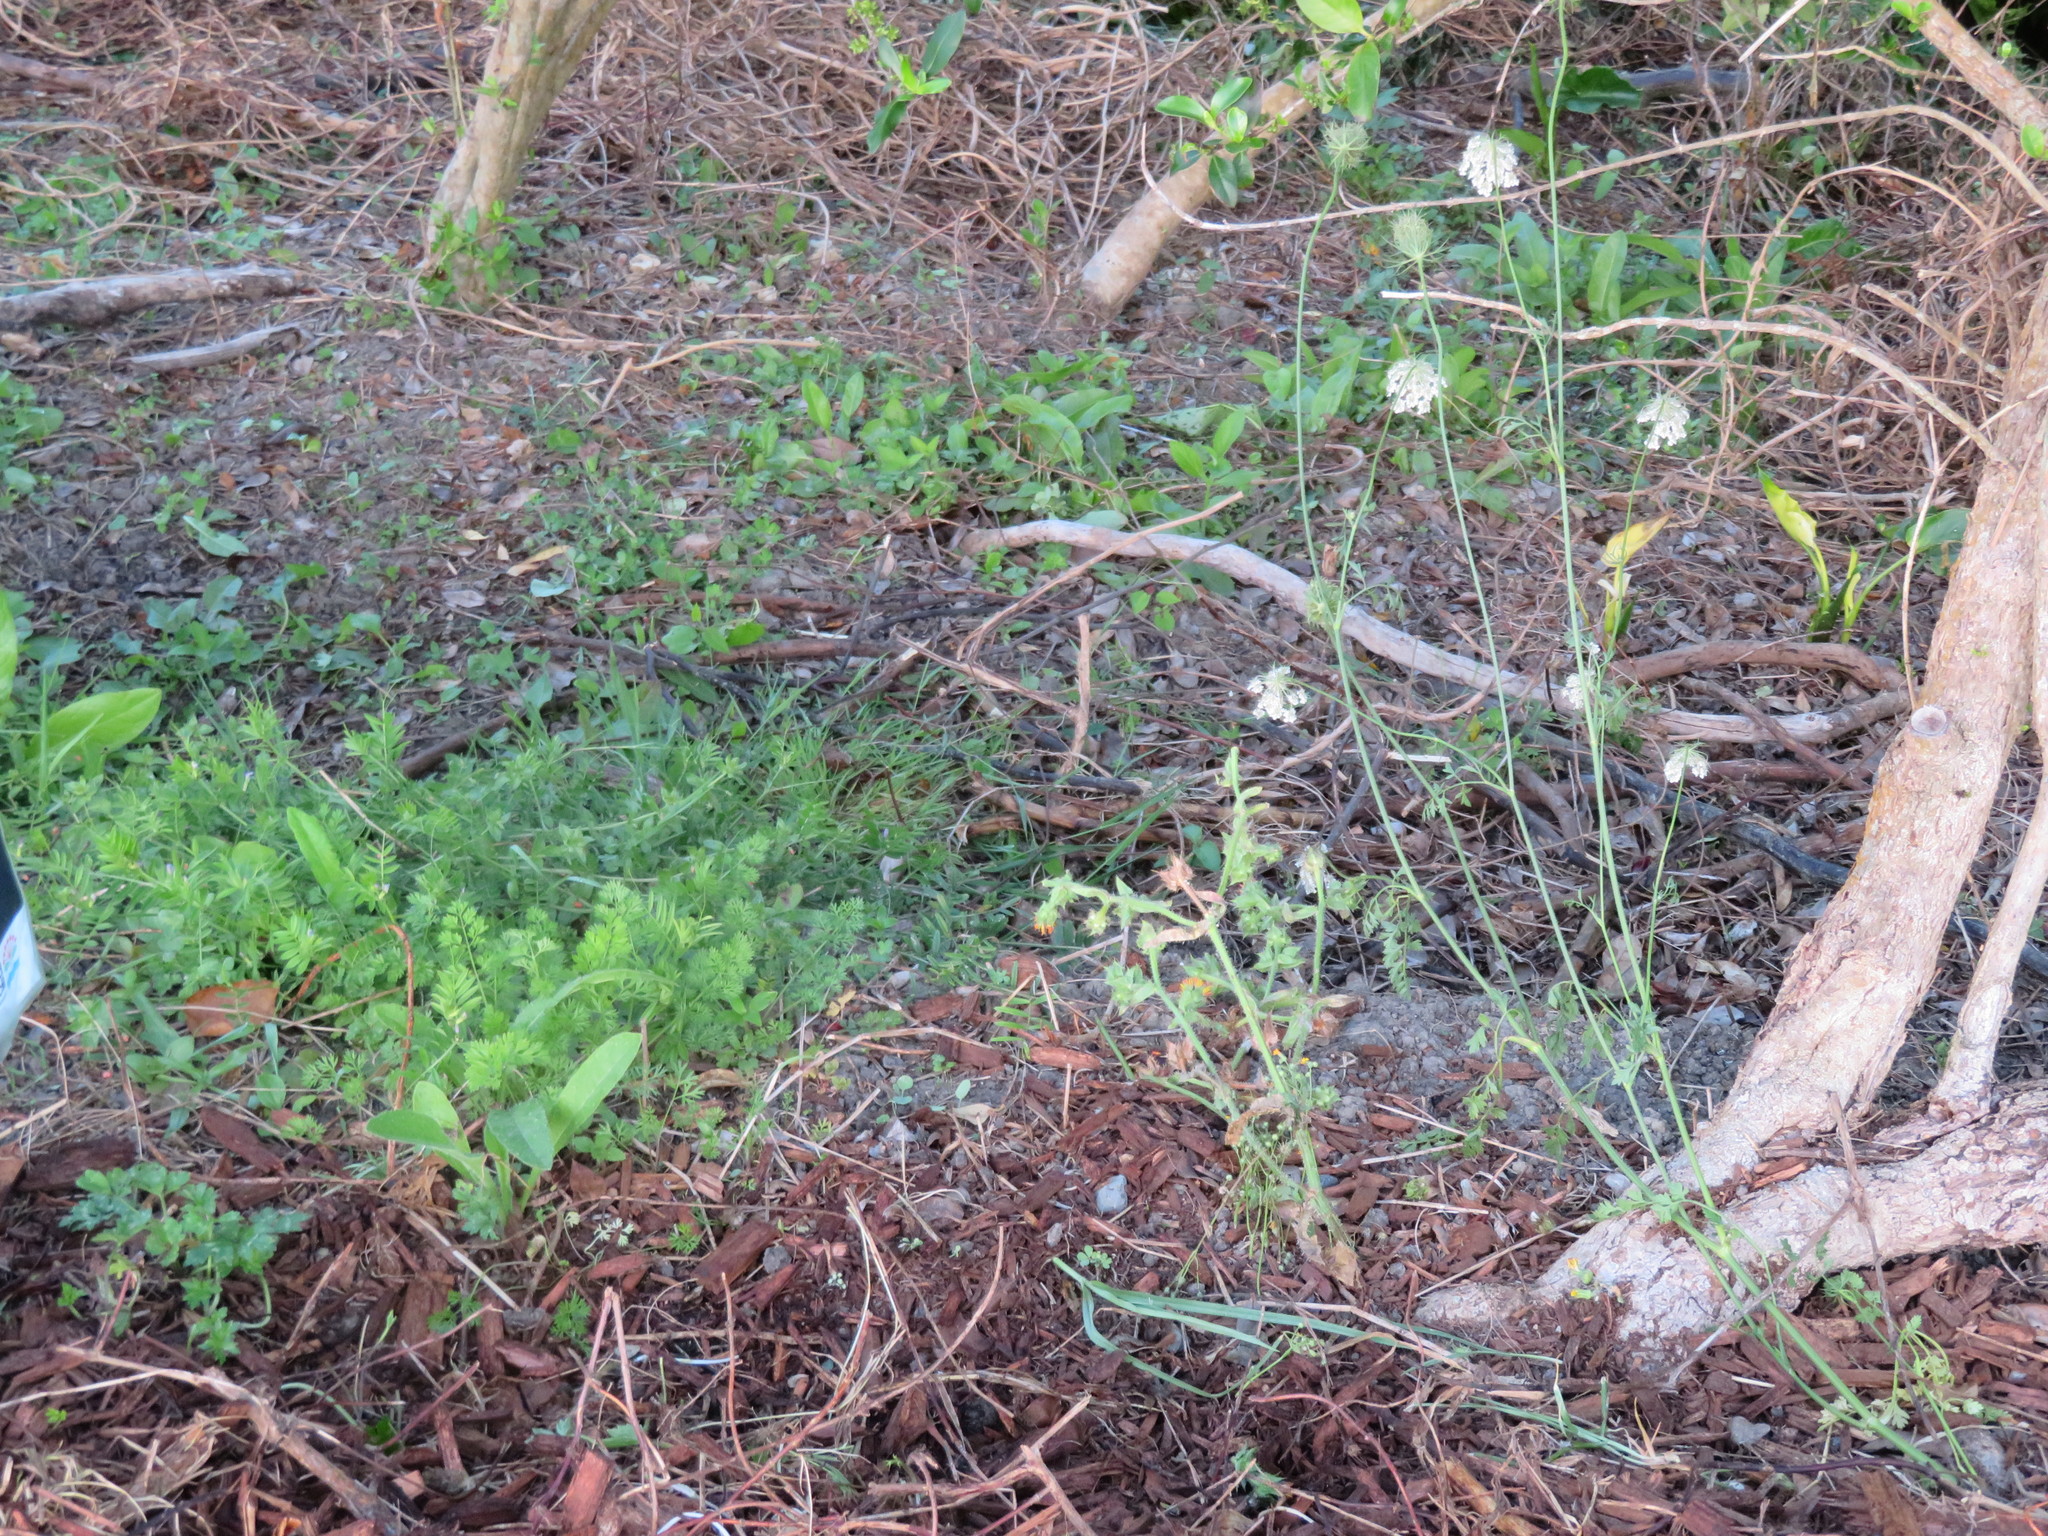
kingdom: Plantae
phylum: Tracheophyta
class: Magnoliopsida
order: Apiales
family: Apiaceae
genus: Daucus
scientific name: Daucus carota
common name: Wild carrot
